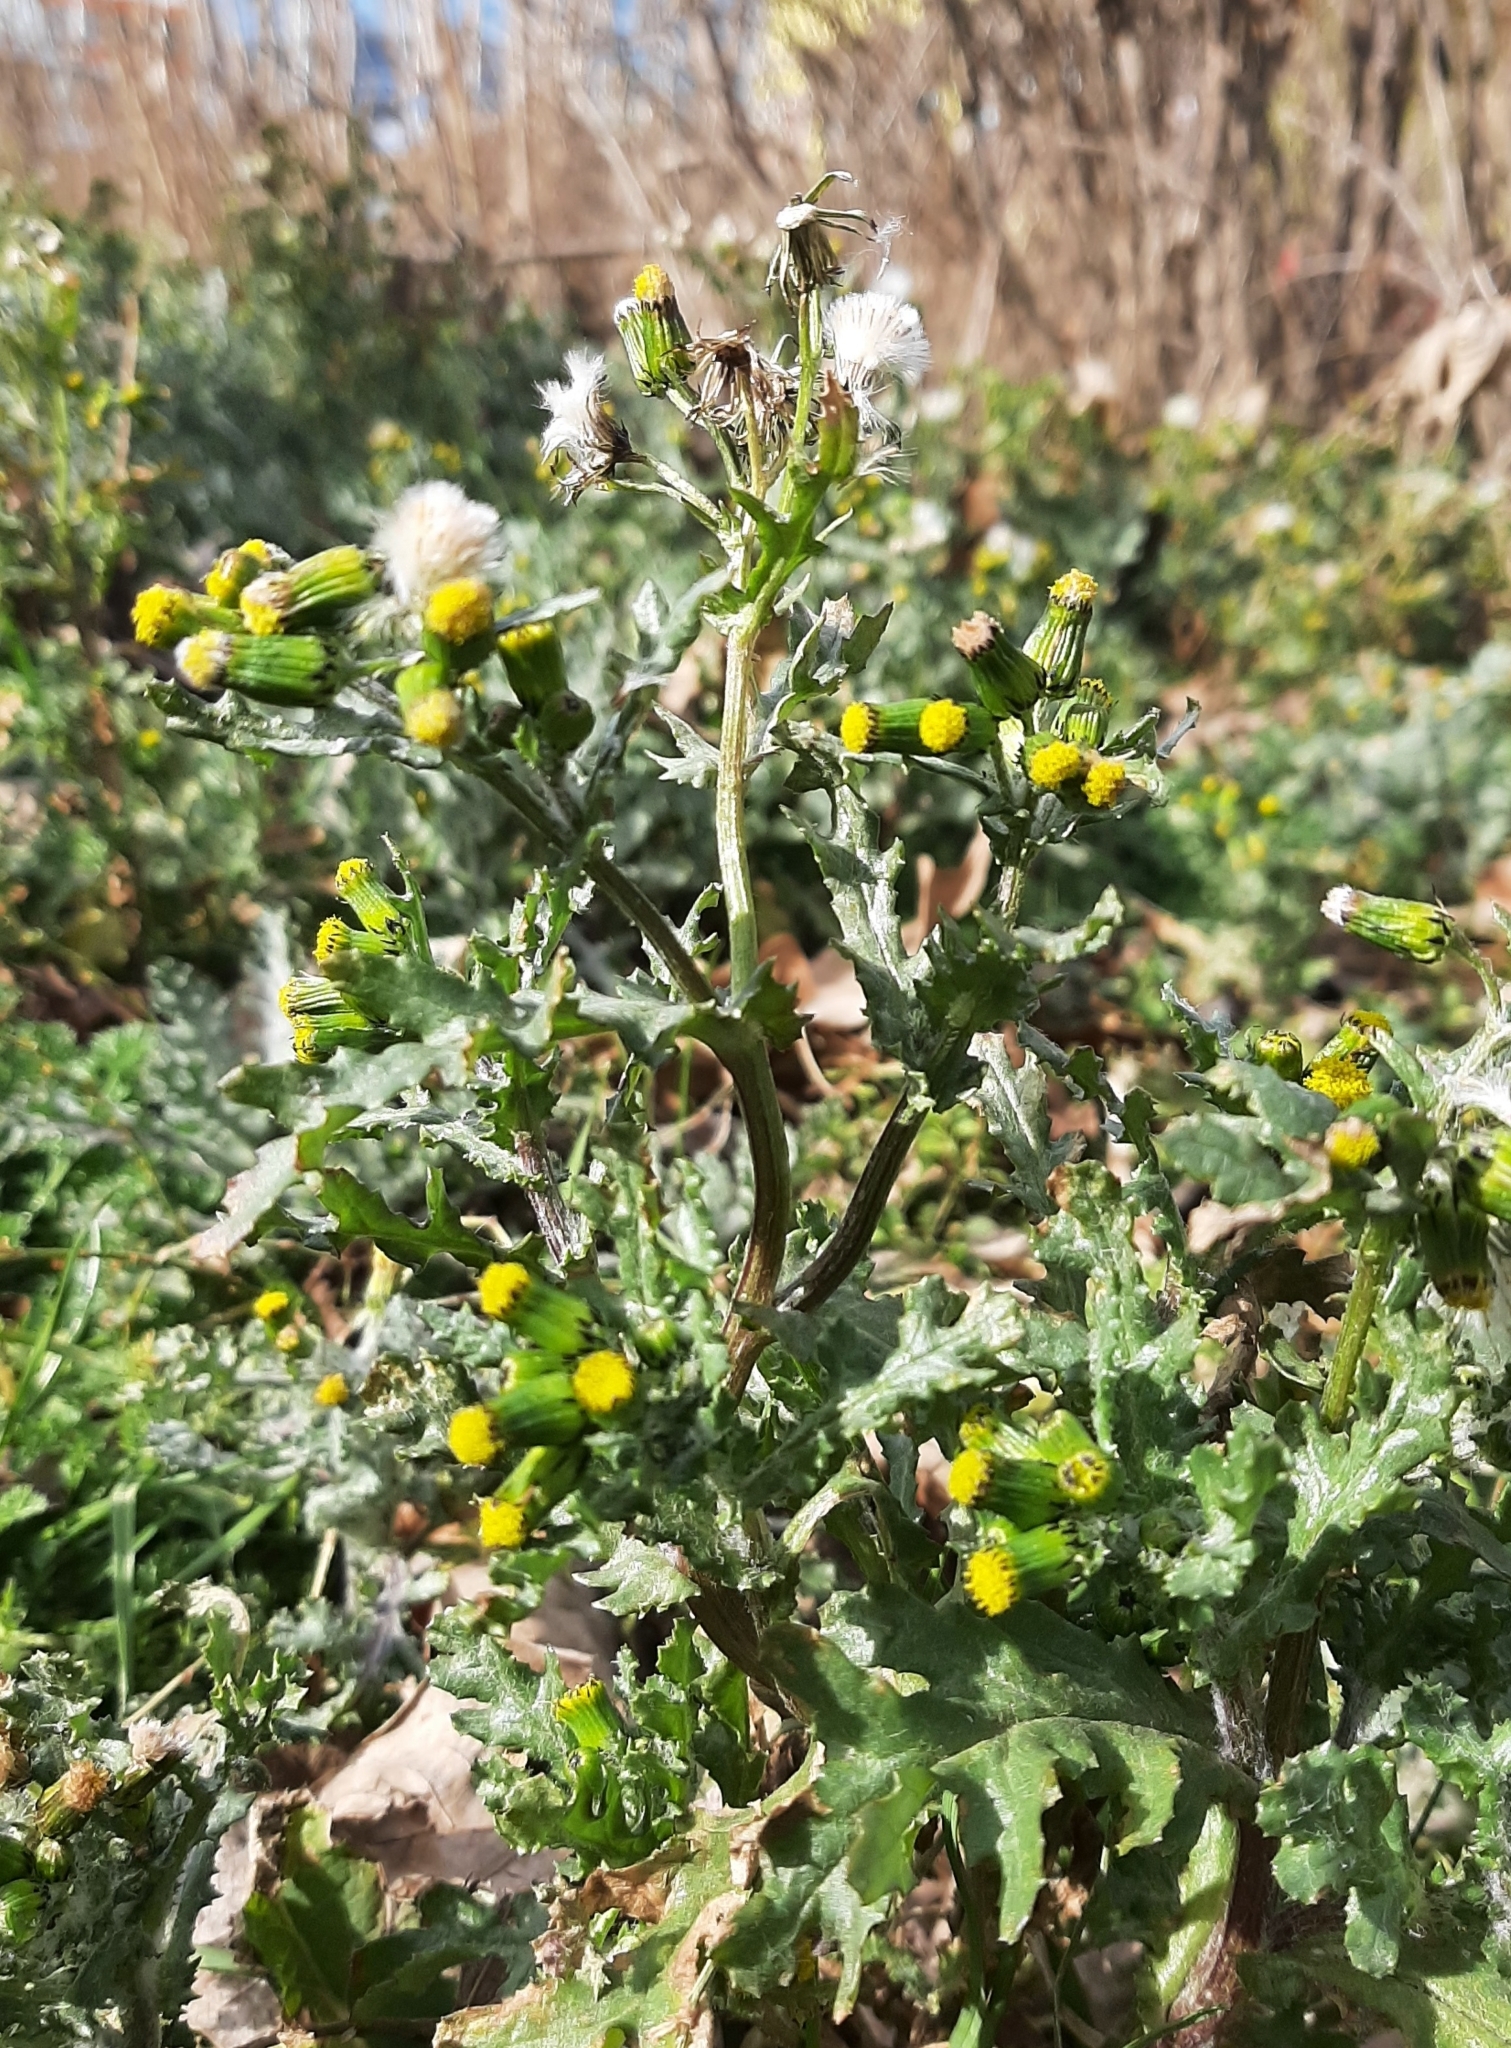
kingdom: Plantae
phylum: Tracheophyta
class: Magnoliopsida
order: Asterales
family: Asteraceae
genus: Senecio
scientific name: Senecio vulgaris
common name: Old-man-in-the-spring
